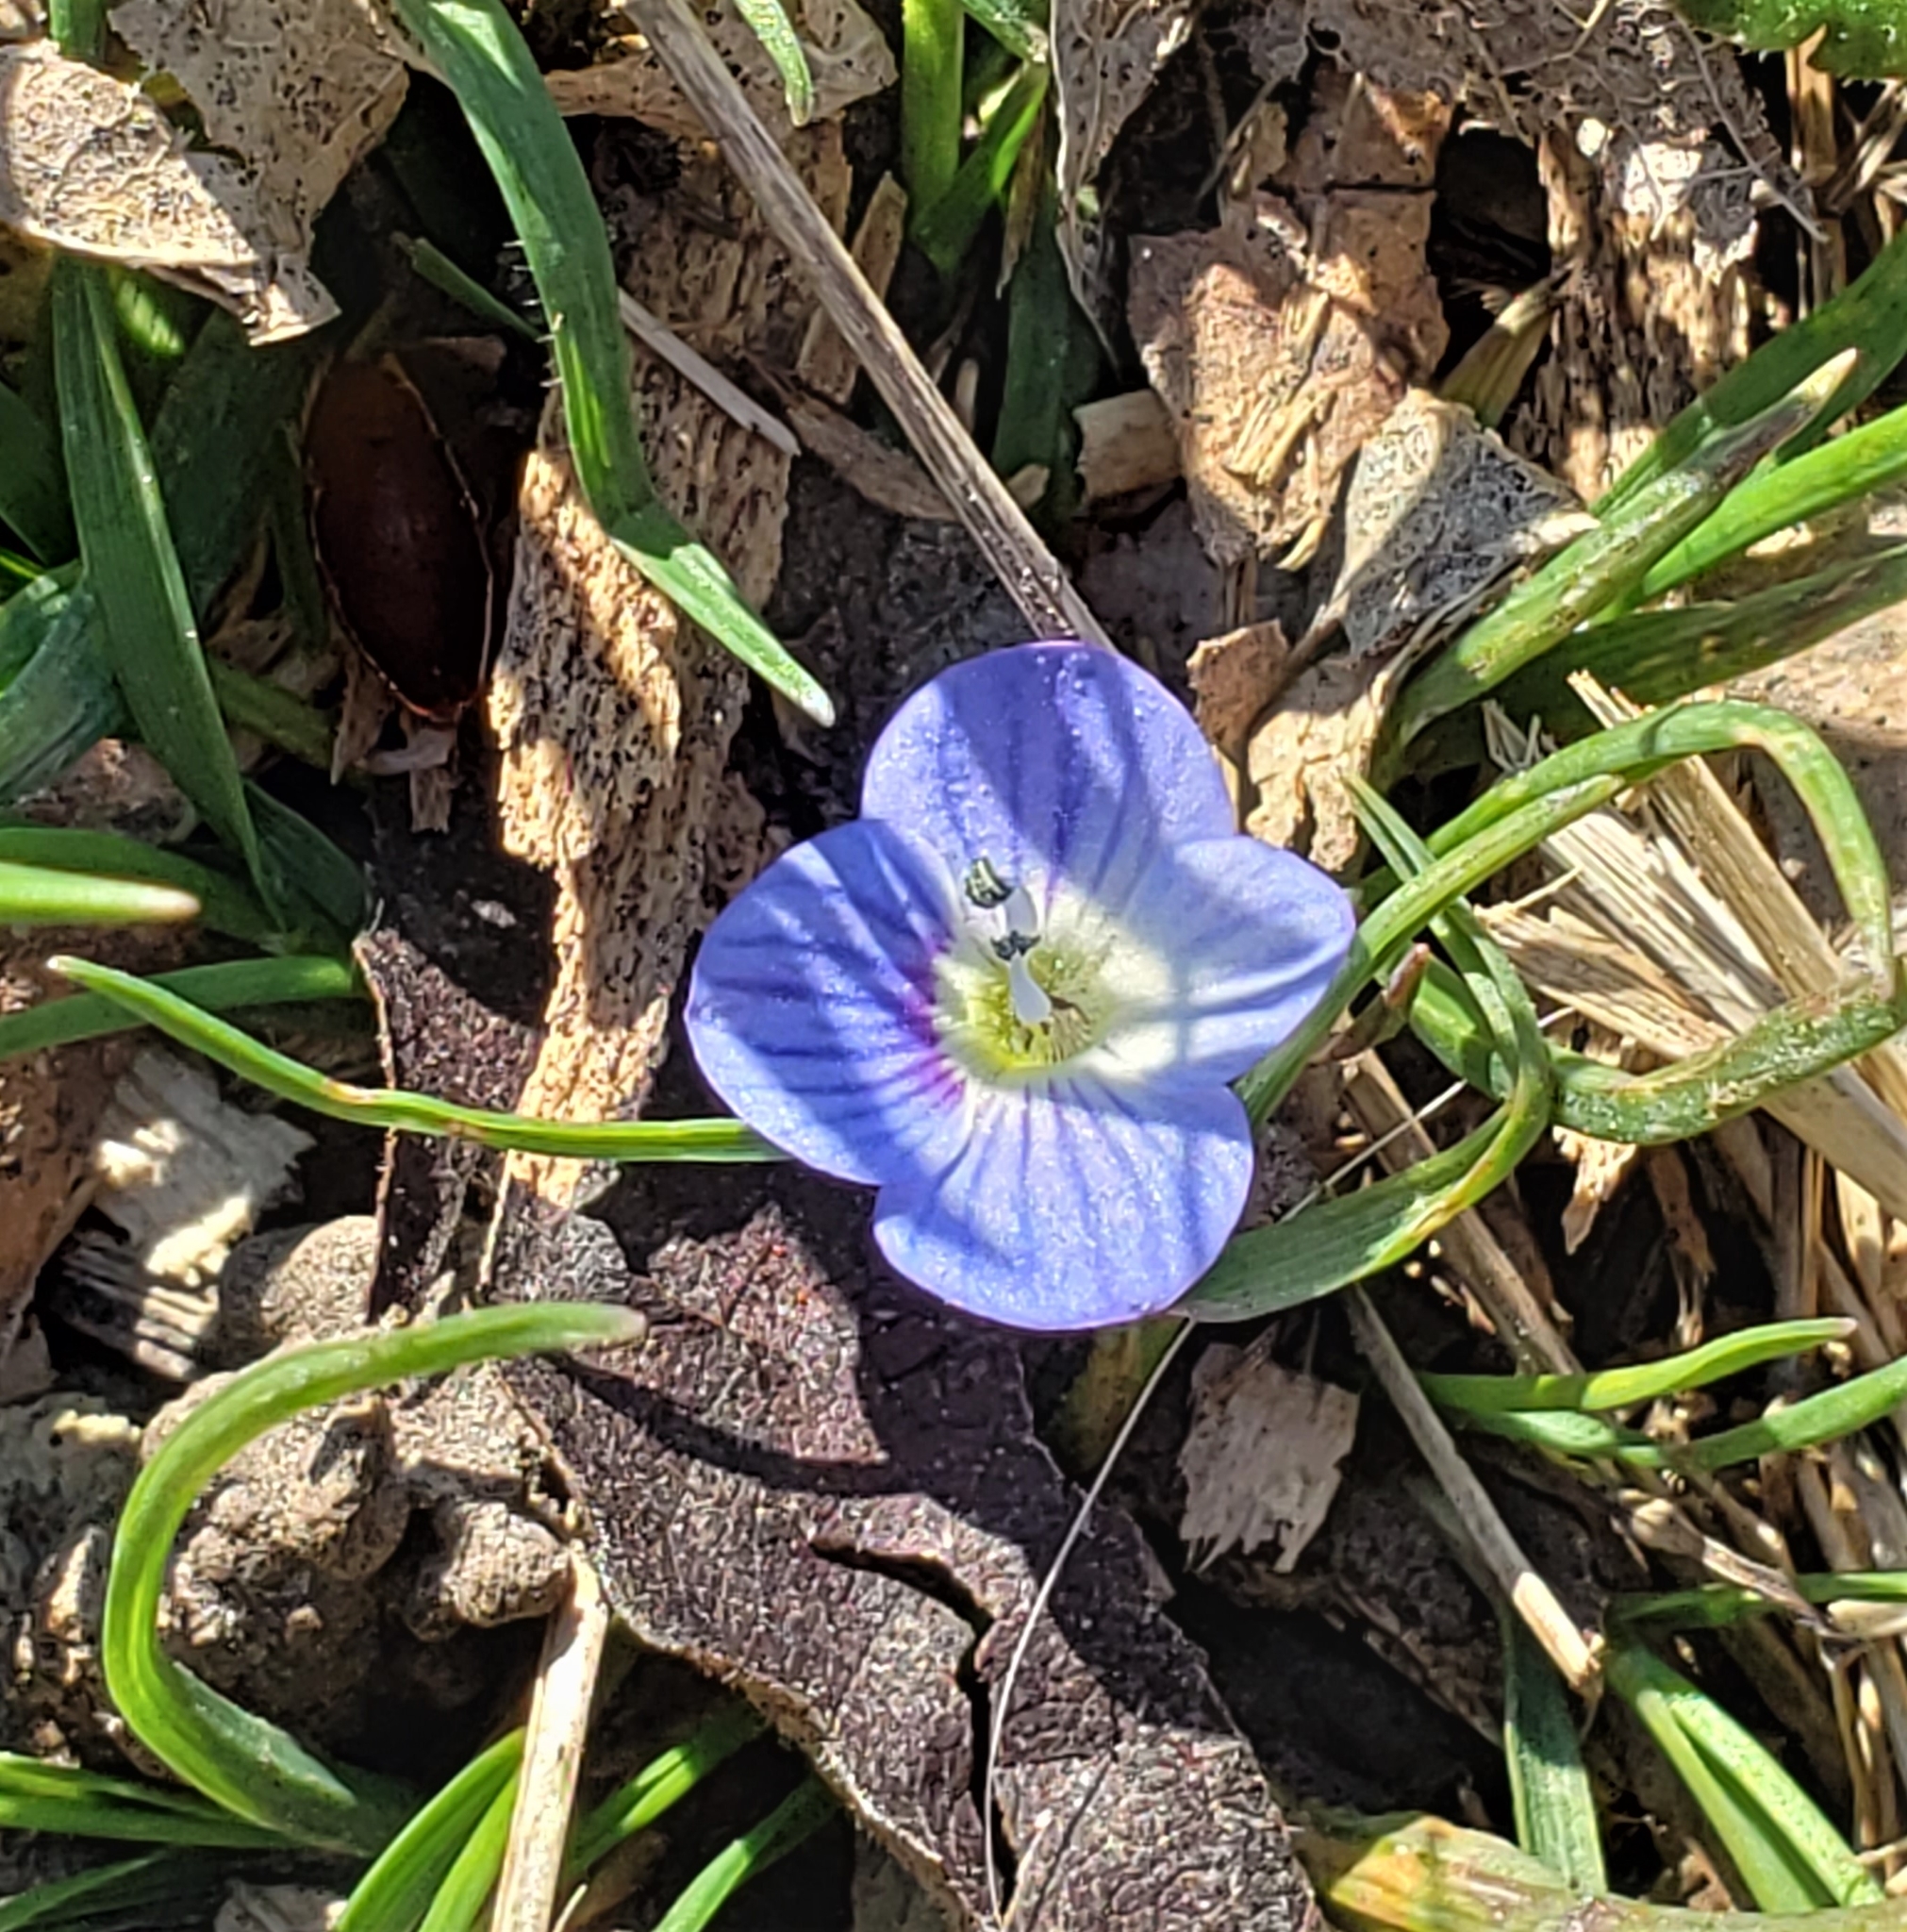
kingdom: Plantae
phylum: Tracheophyta
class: Magnoliopsida
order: Lamiales
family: Plantaginaceae
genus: Veronica
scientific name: Veronica persica
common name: Common field-speedwell
